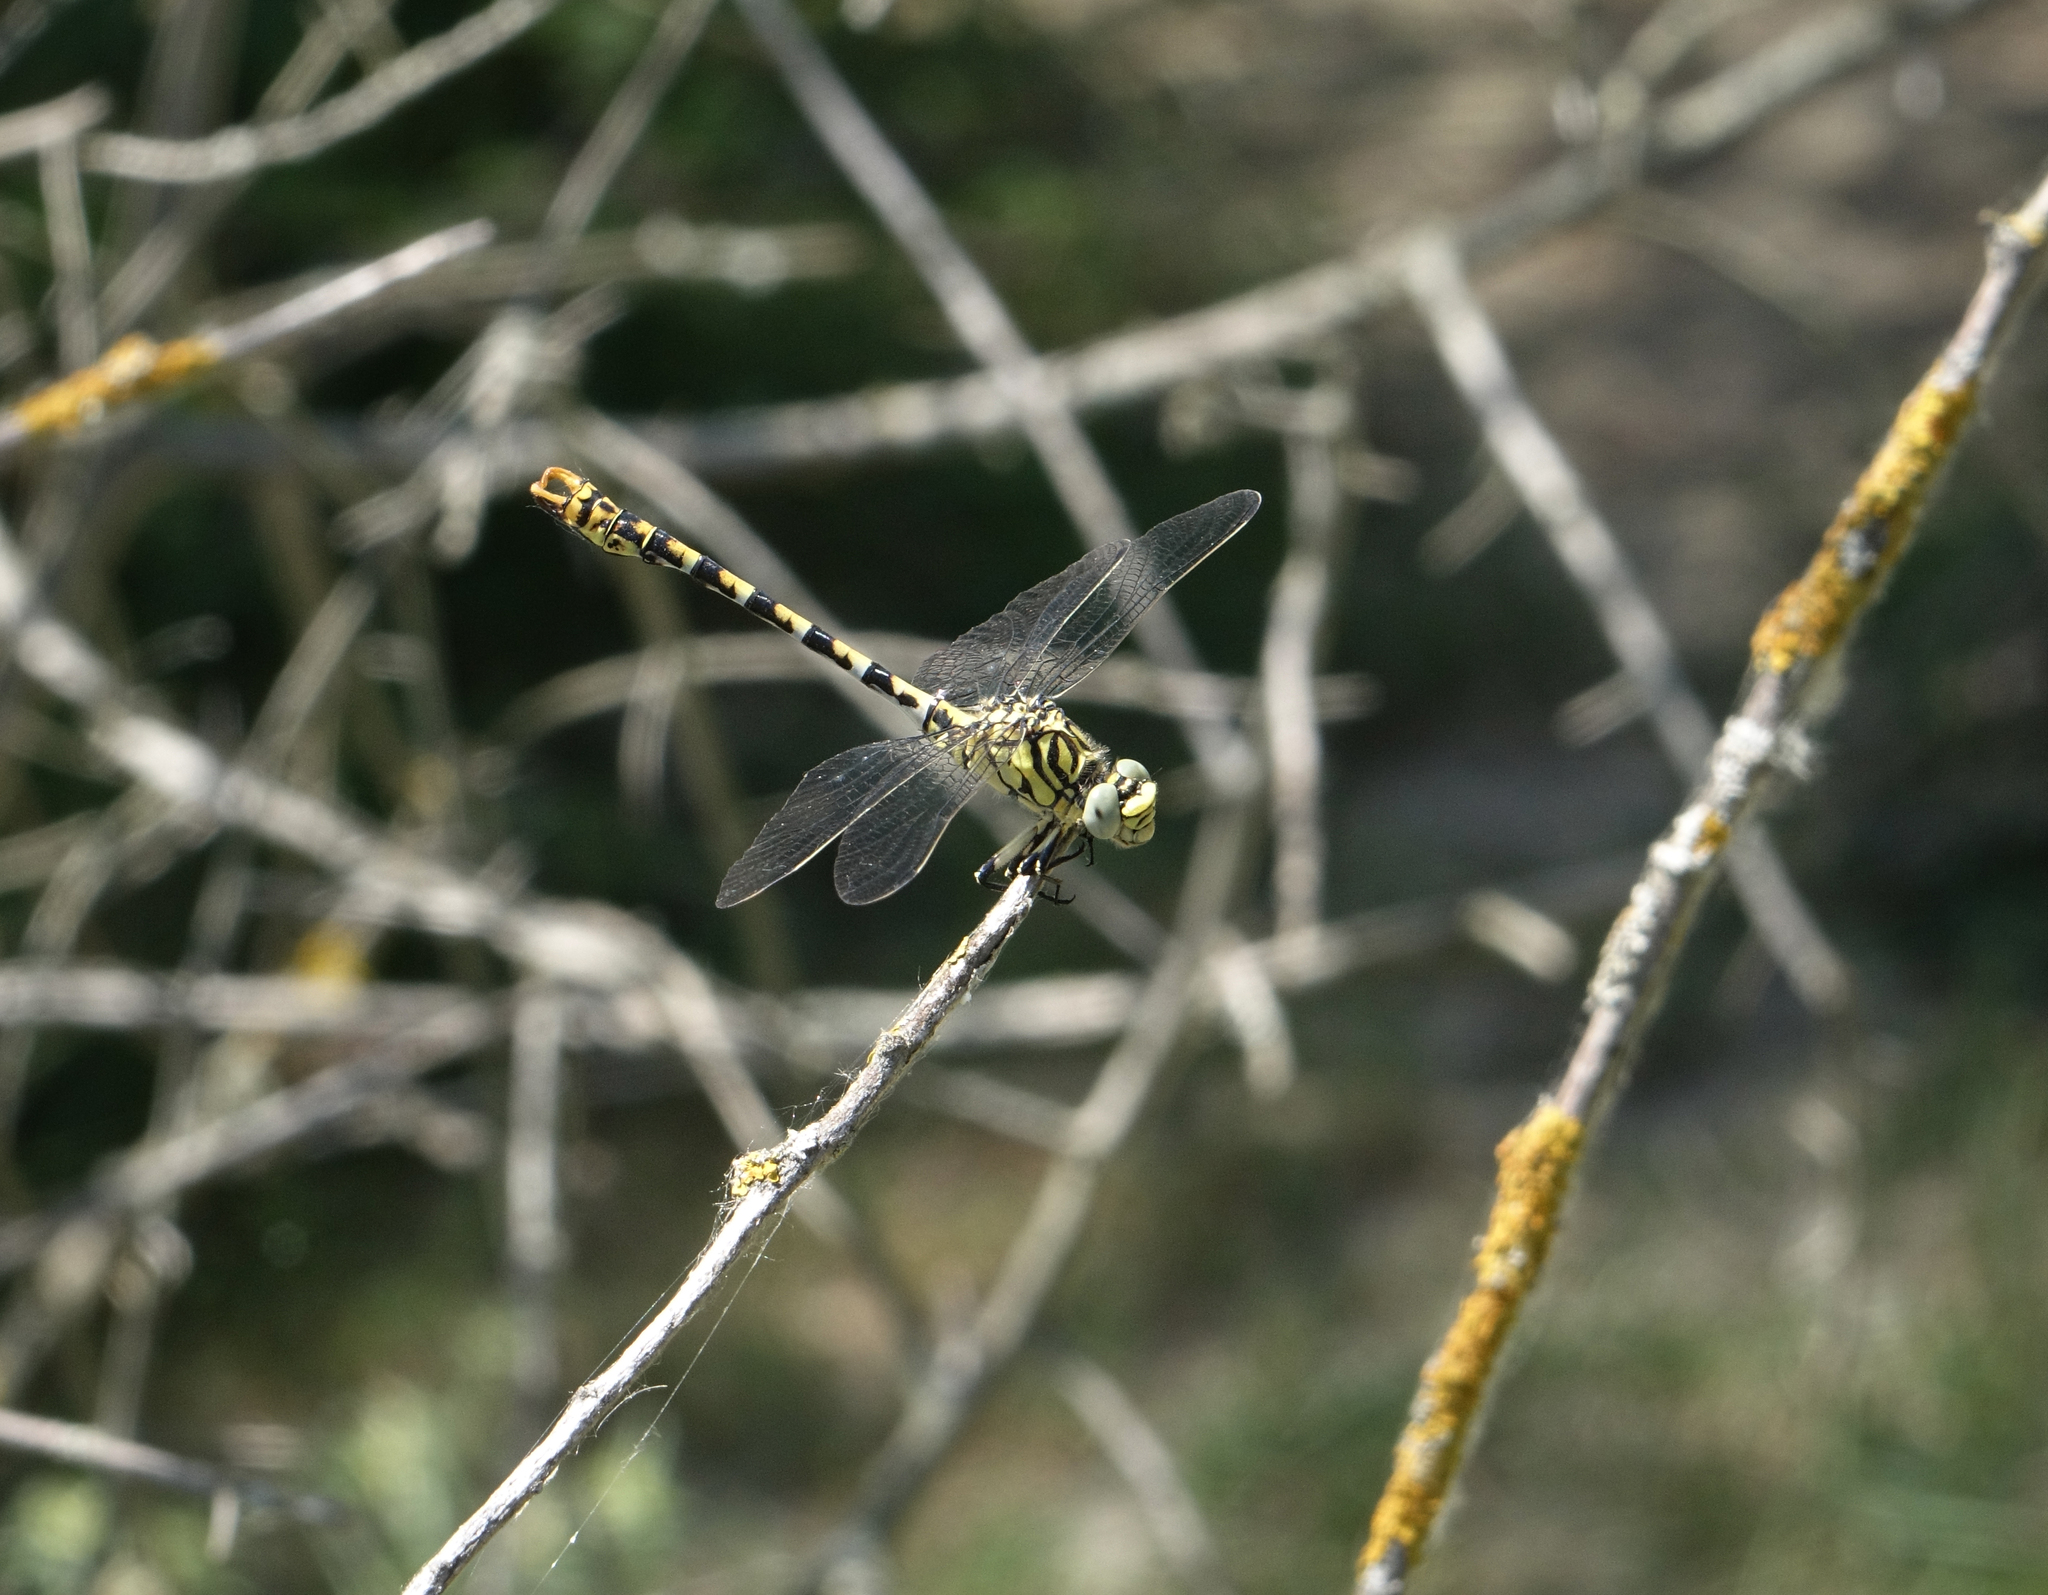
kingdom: Animalia
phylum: Arthropoda
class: Insecta
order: Odonata
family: Gomphidae
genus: Onychogomphus
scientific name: Onychogomphus forcipatus
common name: Small pincertail
